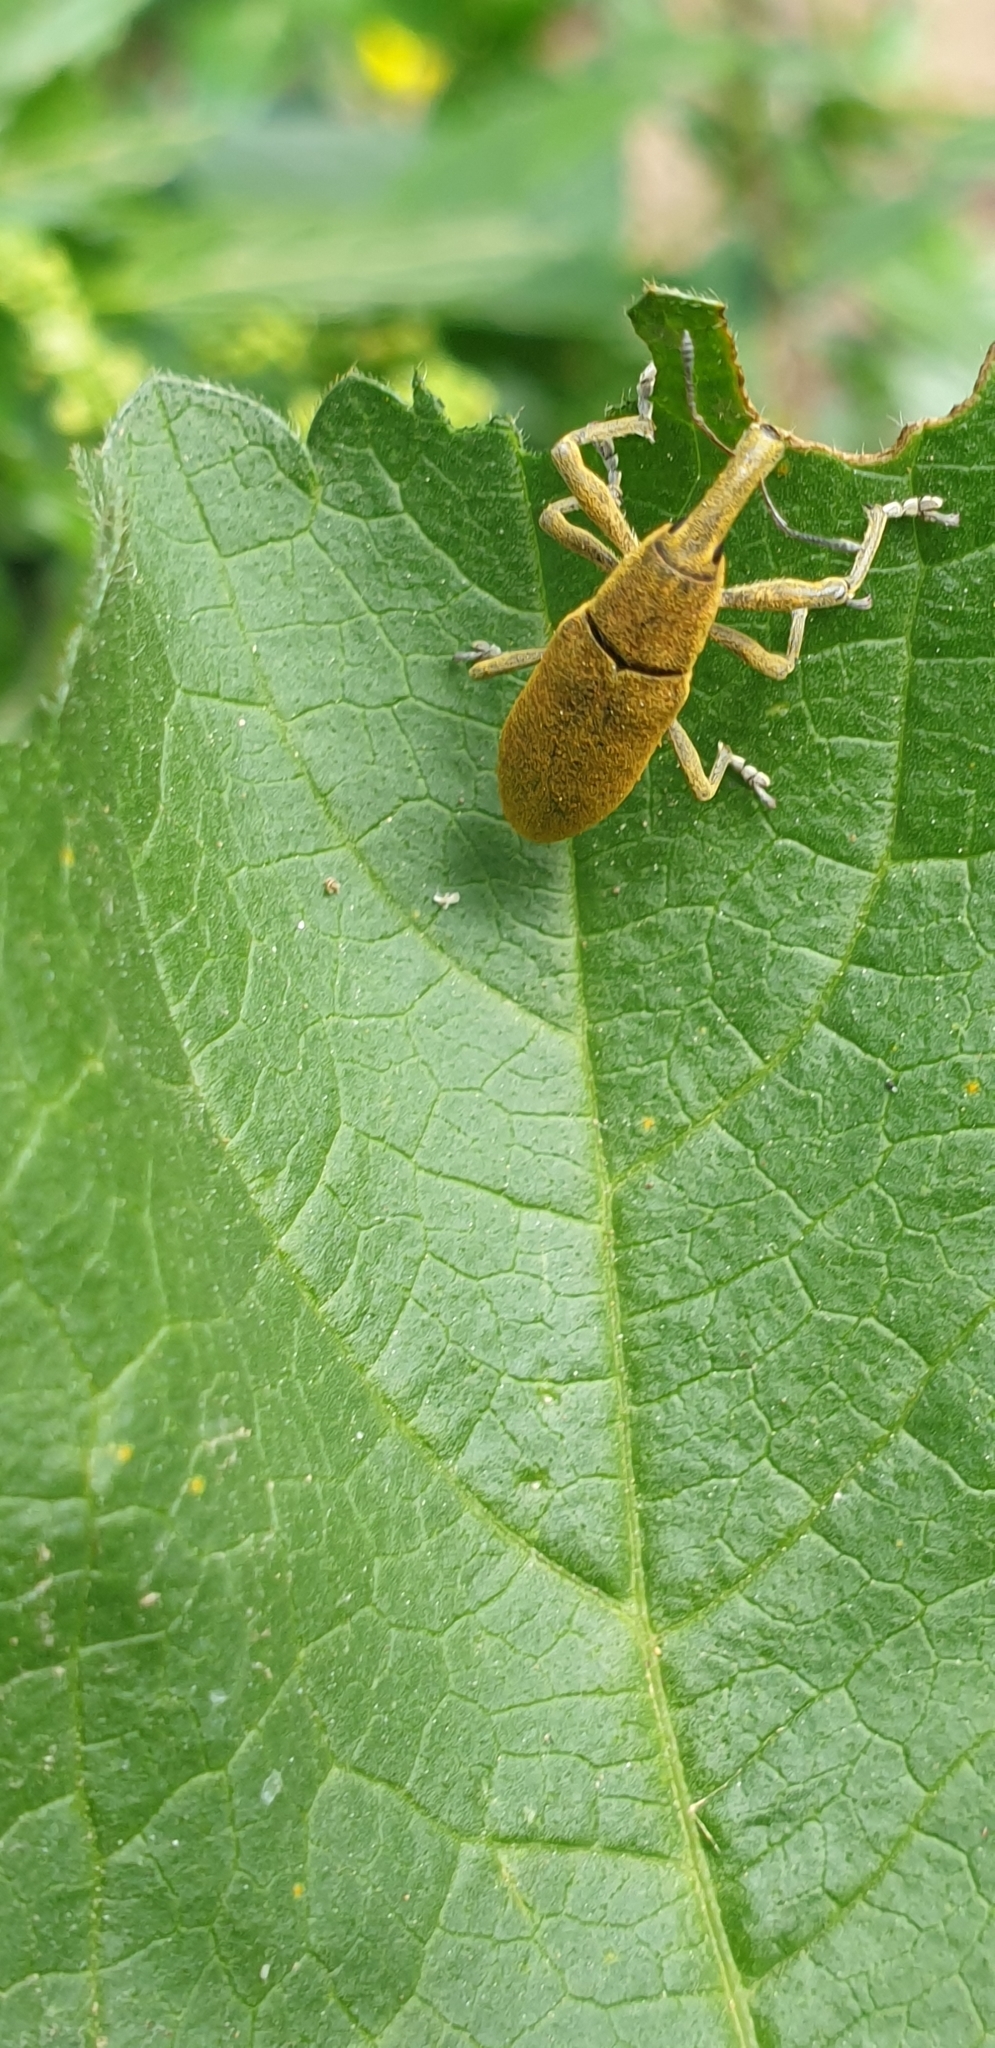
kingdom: Animalia
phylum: Arthropoda
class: Insecta
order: Coleoptera
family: Curculionidae
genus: Lixus
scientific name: Lixus pulverulentus
